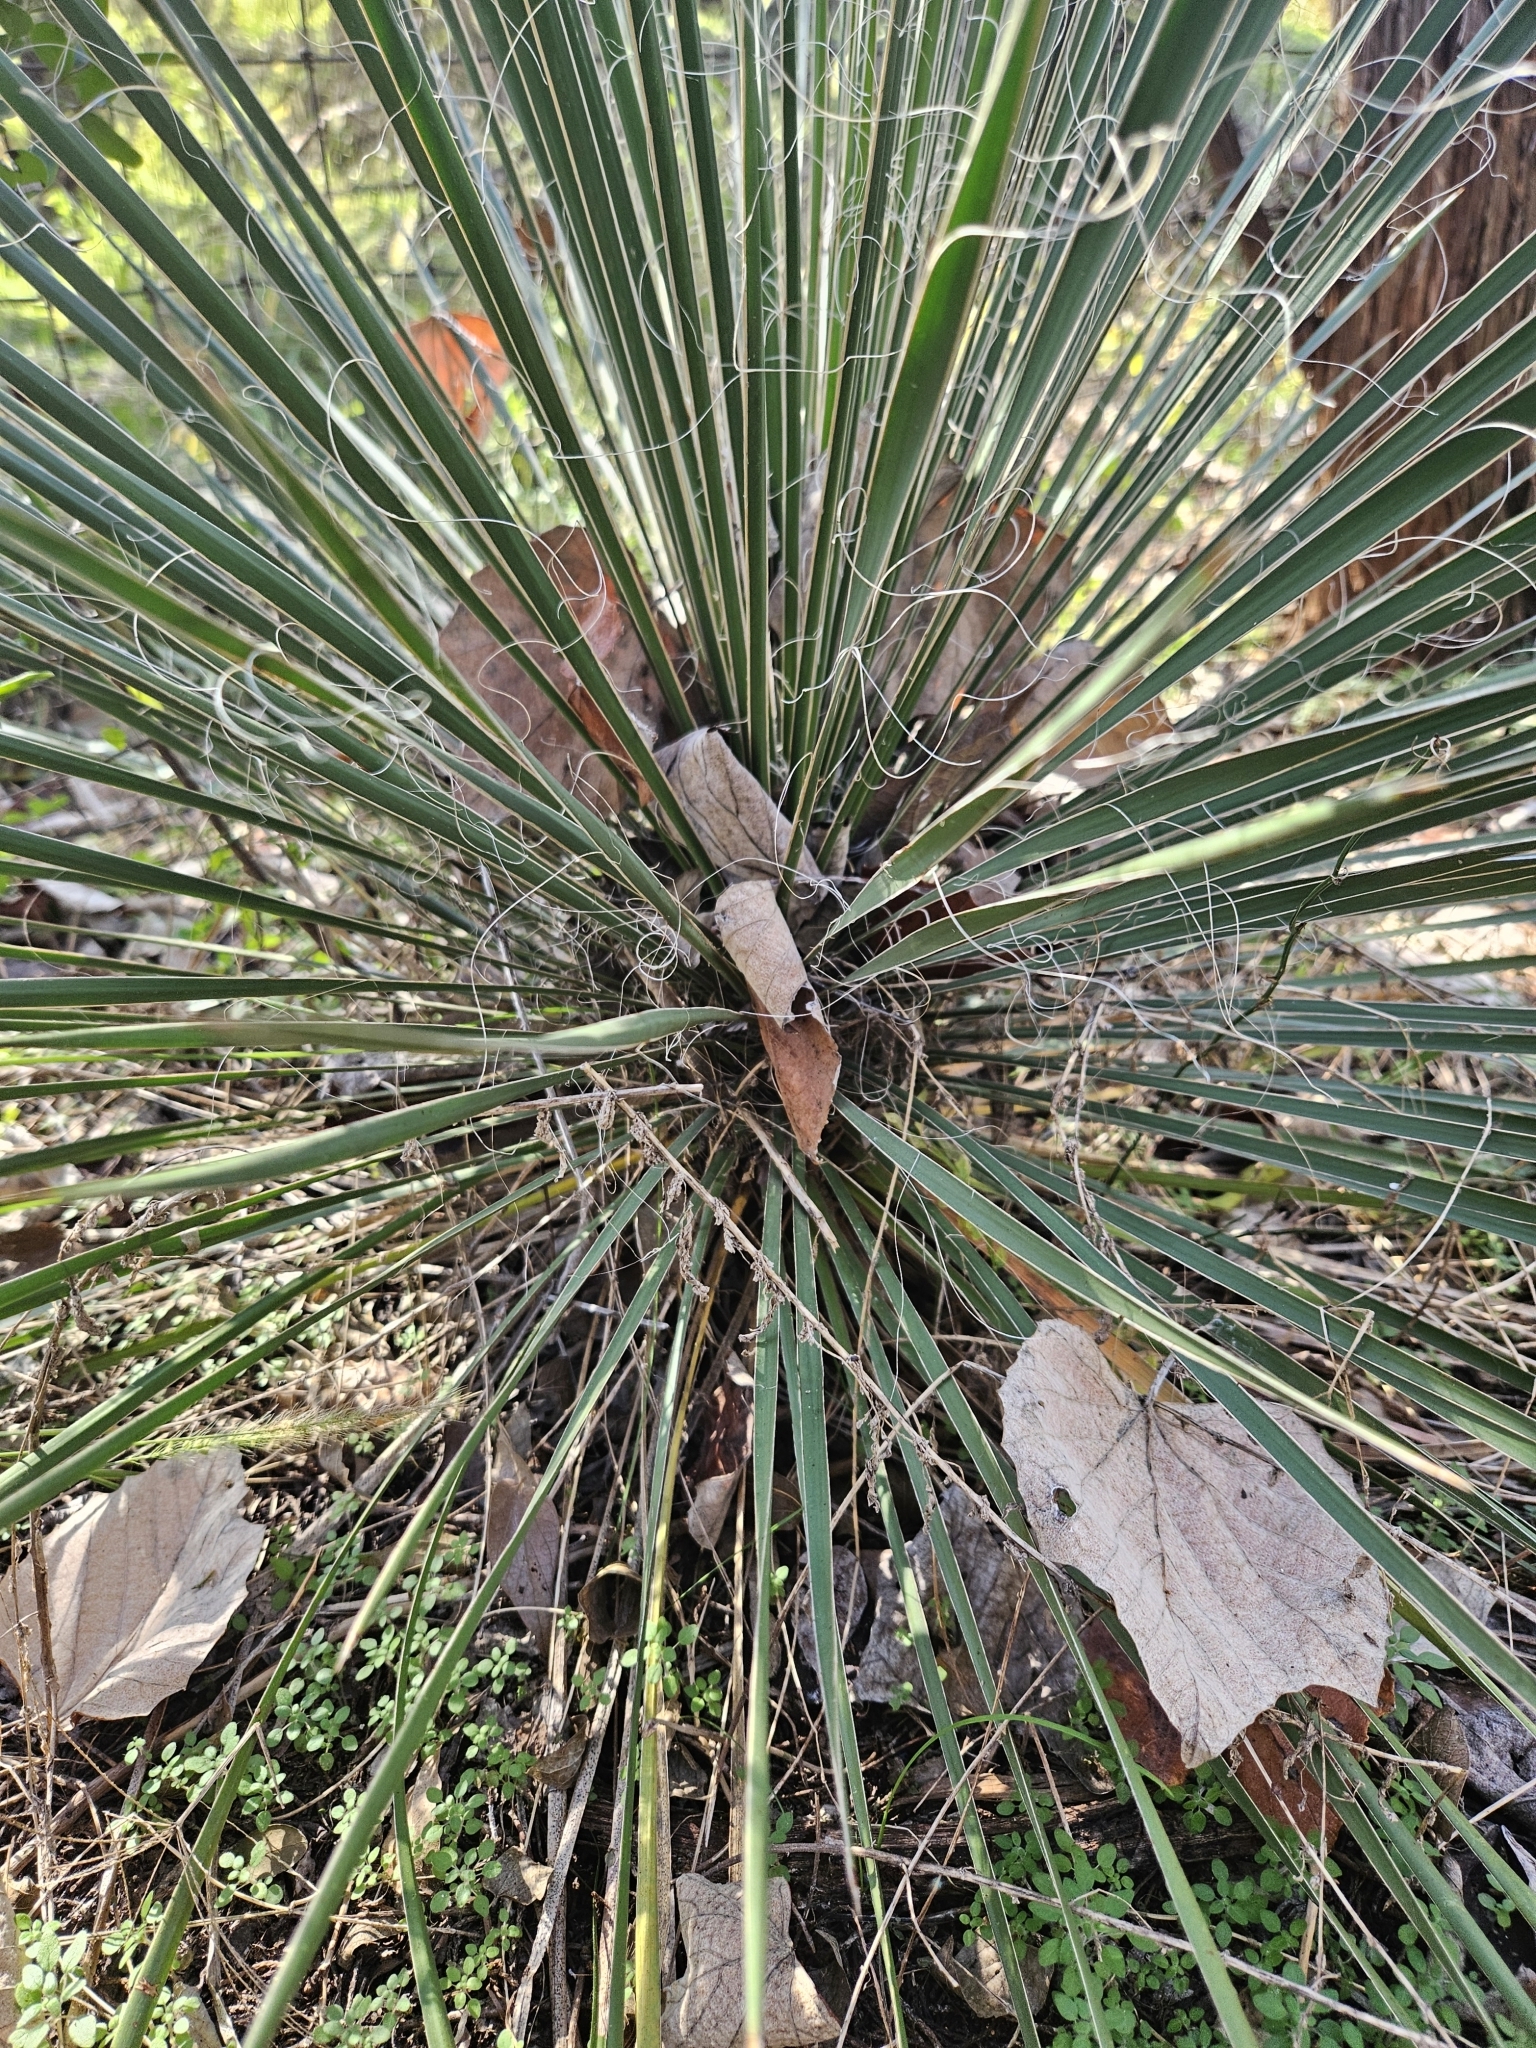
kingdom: Plantae
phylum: Tracheophyta
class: Liliopsida
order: Asparagales
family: Asparagaceae
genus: Yucca
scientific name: Yucca constricta
